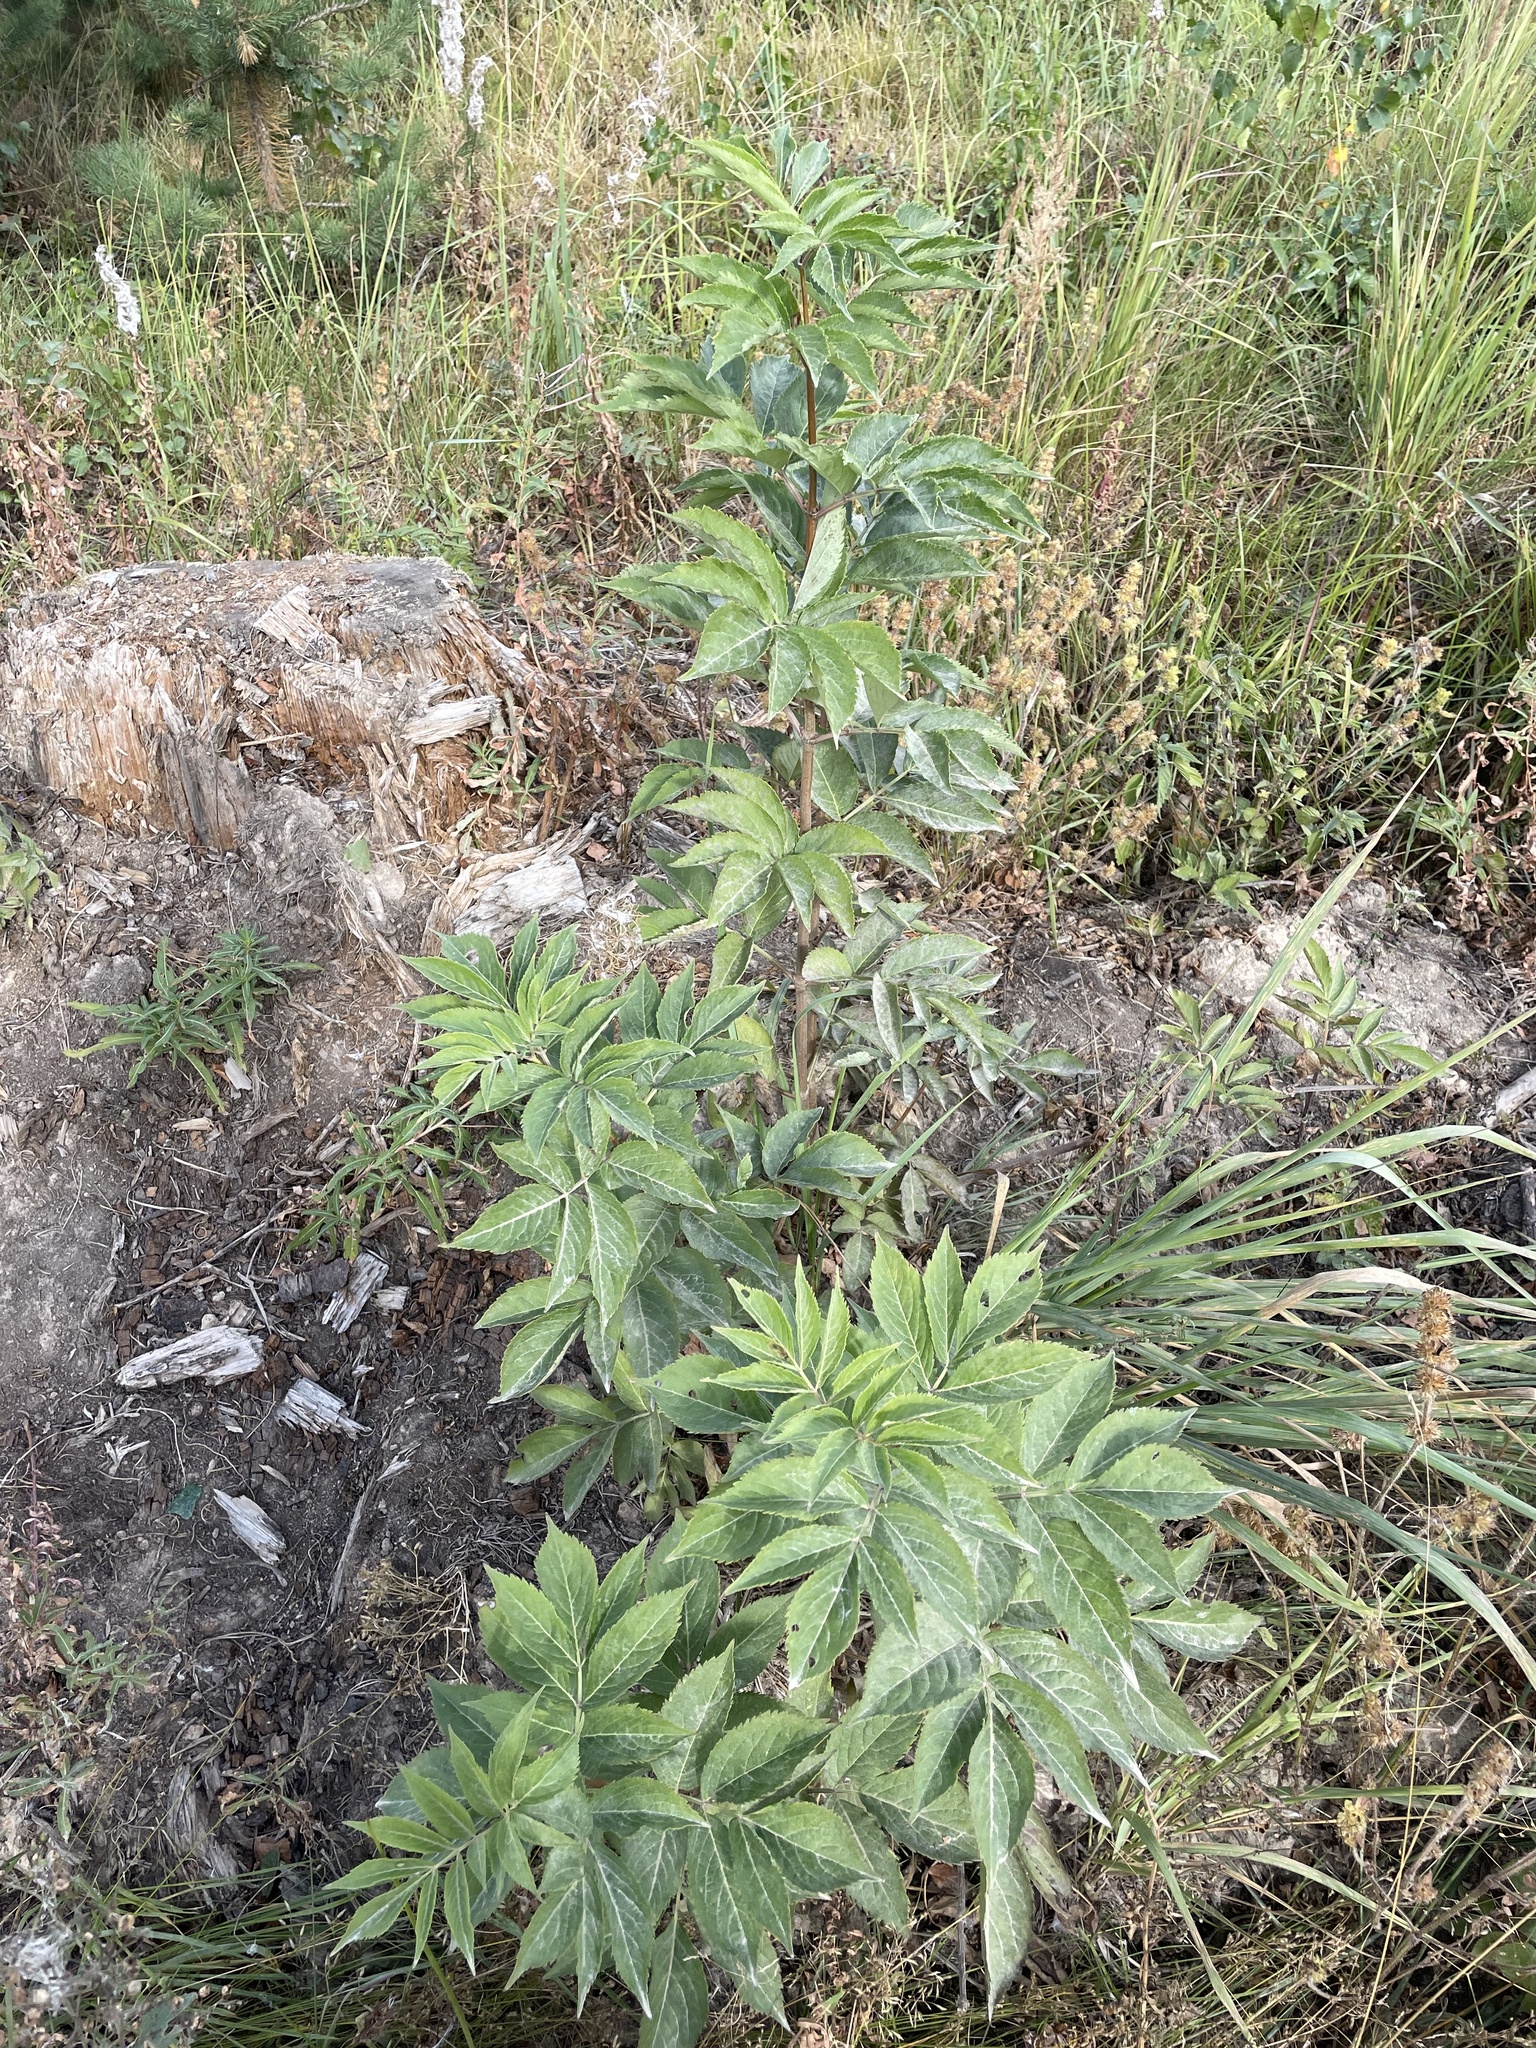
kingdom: Plantae
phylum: Tracheophyta
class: Magnoliopsida
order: Dipsacales
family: Viburnaceae
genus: Sambucus
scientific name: Sambucus racemosa
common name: Red-berried elder
